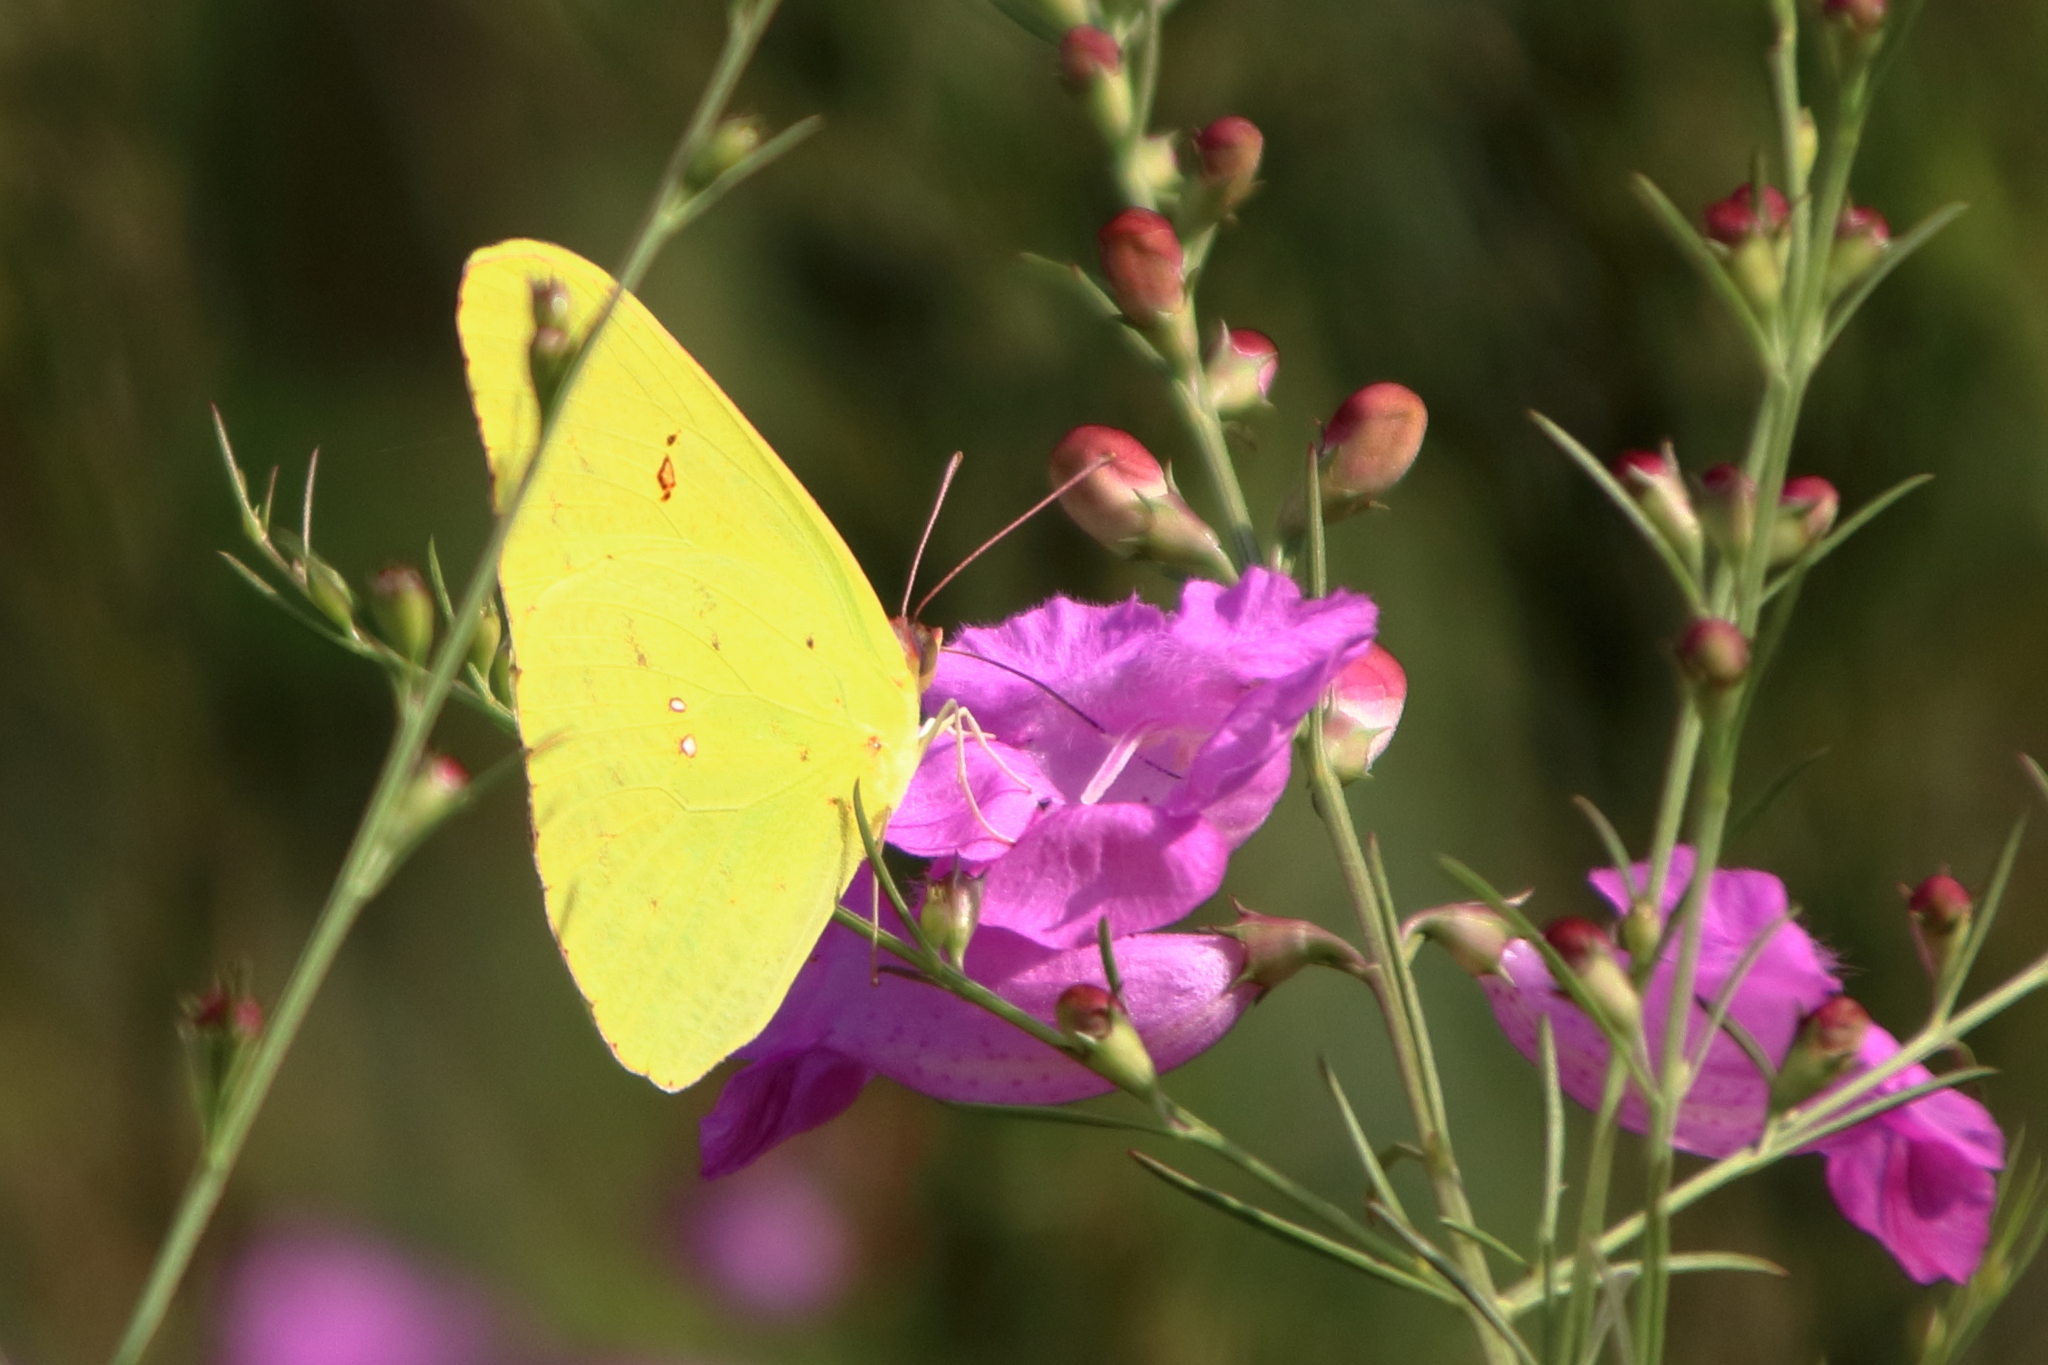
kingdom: Animalia
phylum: Arthropoda
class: Insecta
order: Lepidoptera
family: Pieridae
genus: Phoebis
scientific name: Phoebis sennae
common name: Cloudless sulphur
